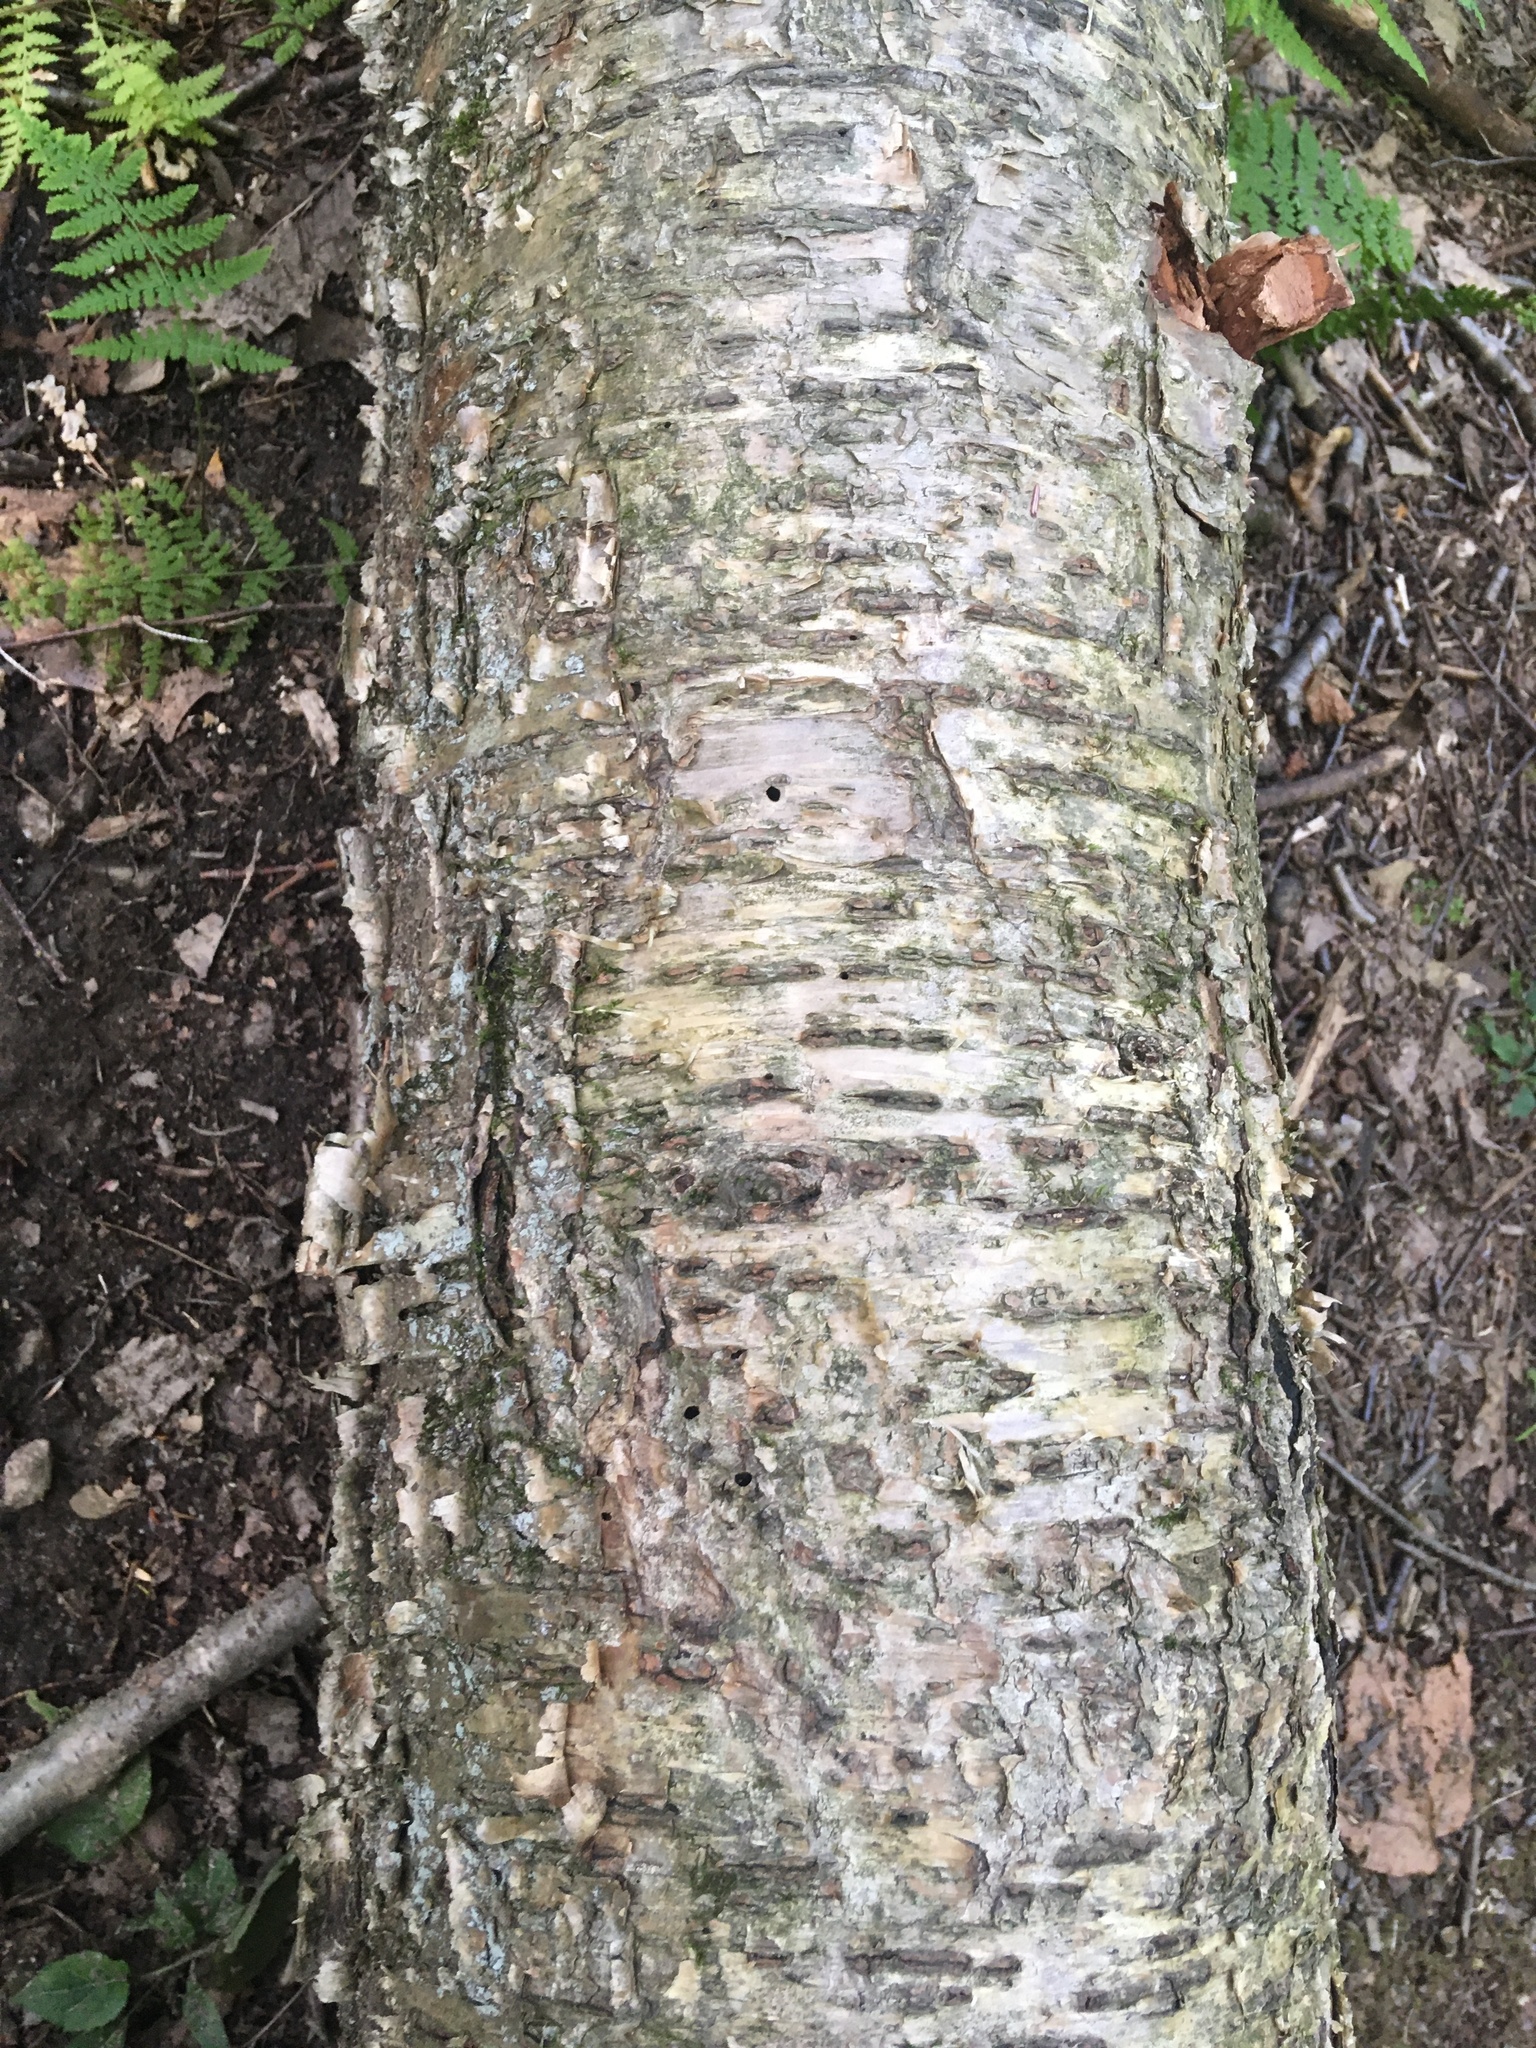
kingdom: Plantae
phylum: Tracheophyta
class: Magnoliopsida
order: Fagales
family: Betulaceae
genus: Betula
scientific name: Betula alleghaniensis
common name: Yellow birch
